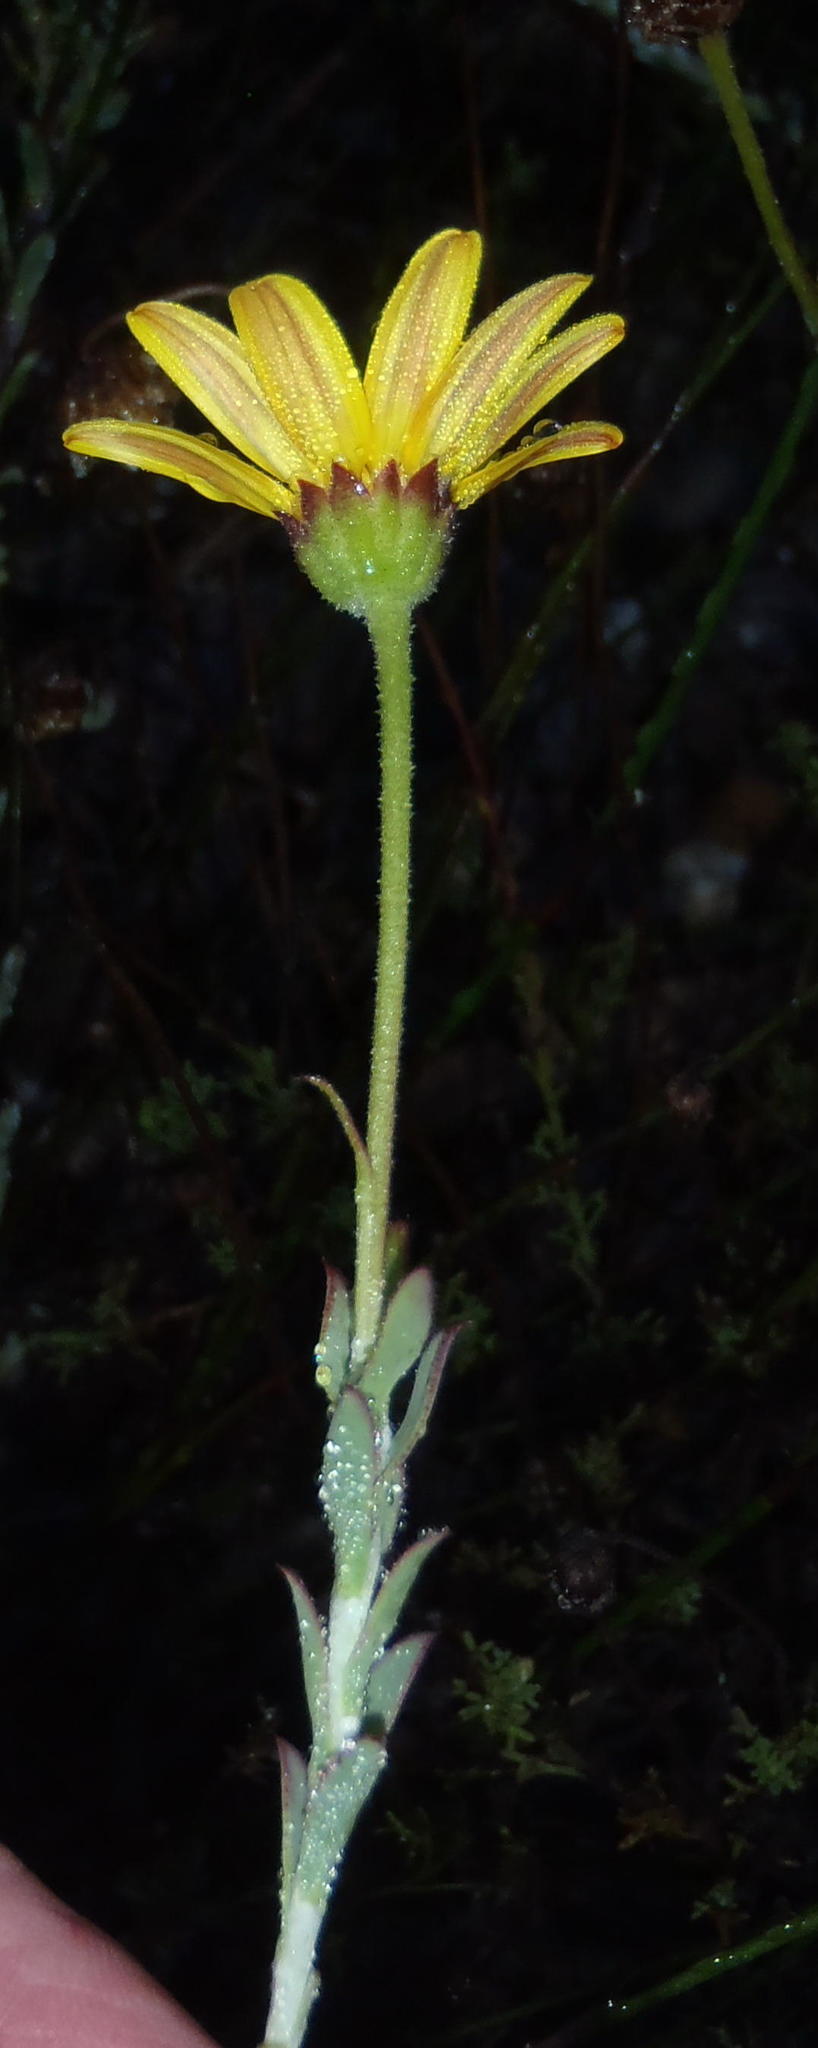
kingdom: Plantae
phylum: Tracheophyta
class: Magnoliopsida
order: Asterales
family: Asteraceae
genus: Osteospermum
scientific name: Osteospermum polygaloides
